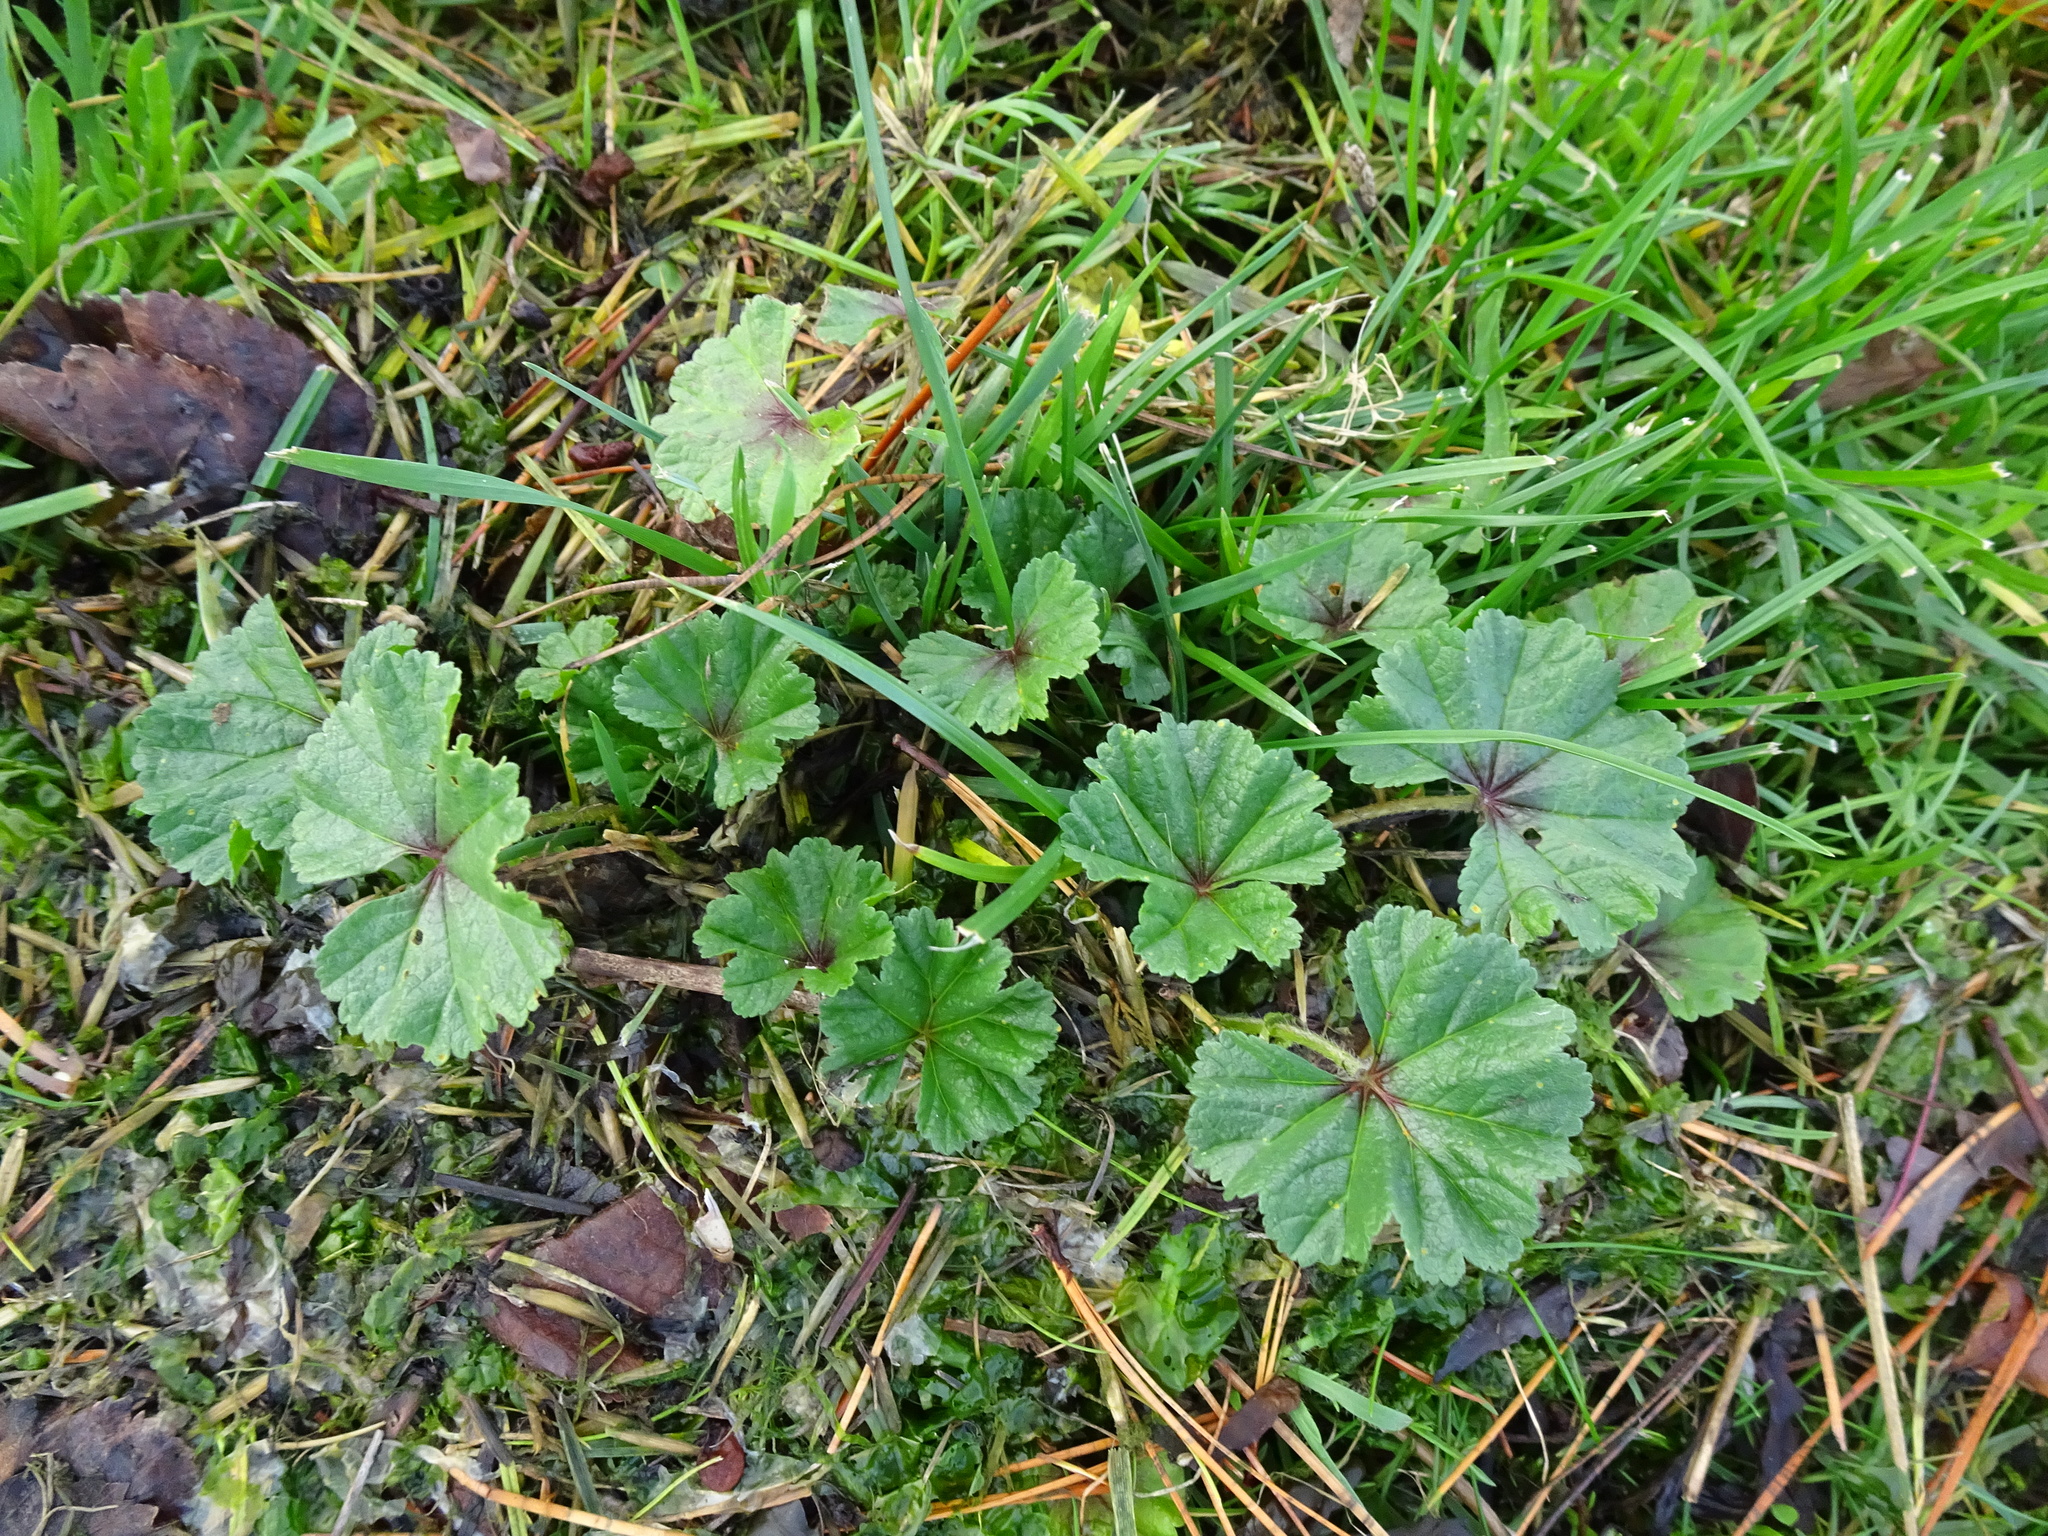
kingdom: Plantae
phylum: Tracheophyta
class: Magnoliopsida
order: Malvales
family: Malvaceae
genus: Malva
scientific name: Malva sylvestris
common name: Common mallow
